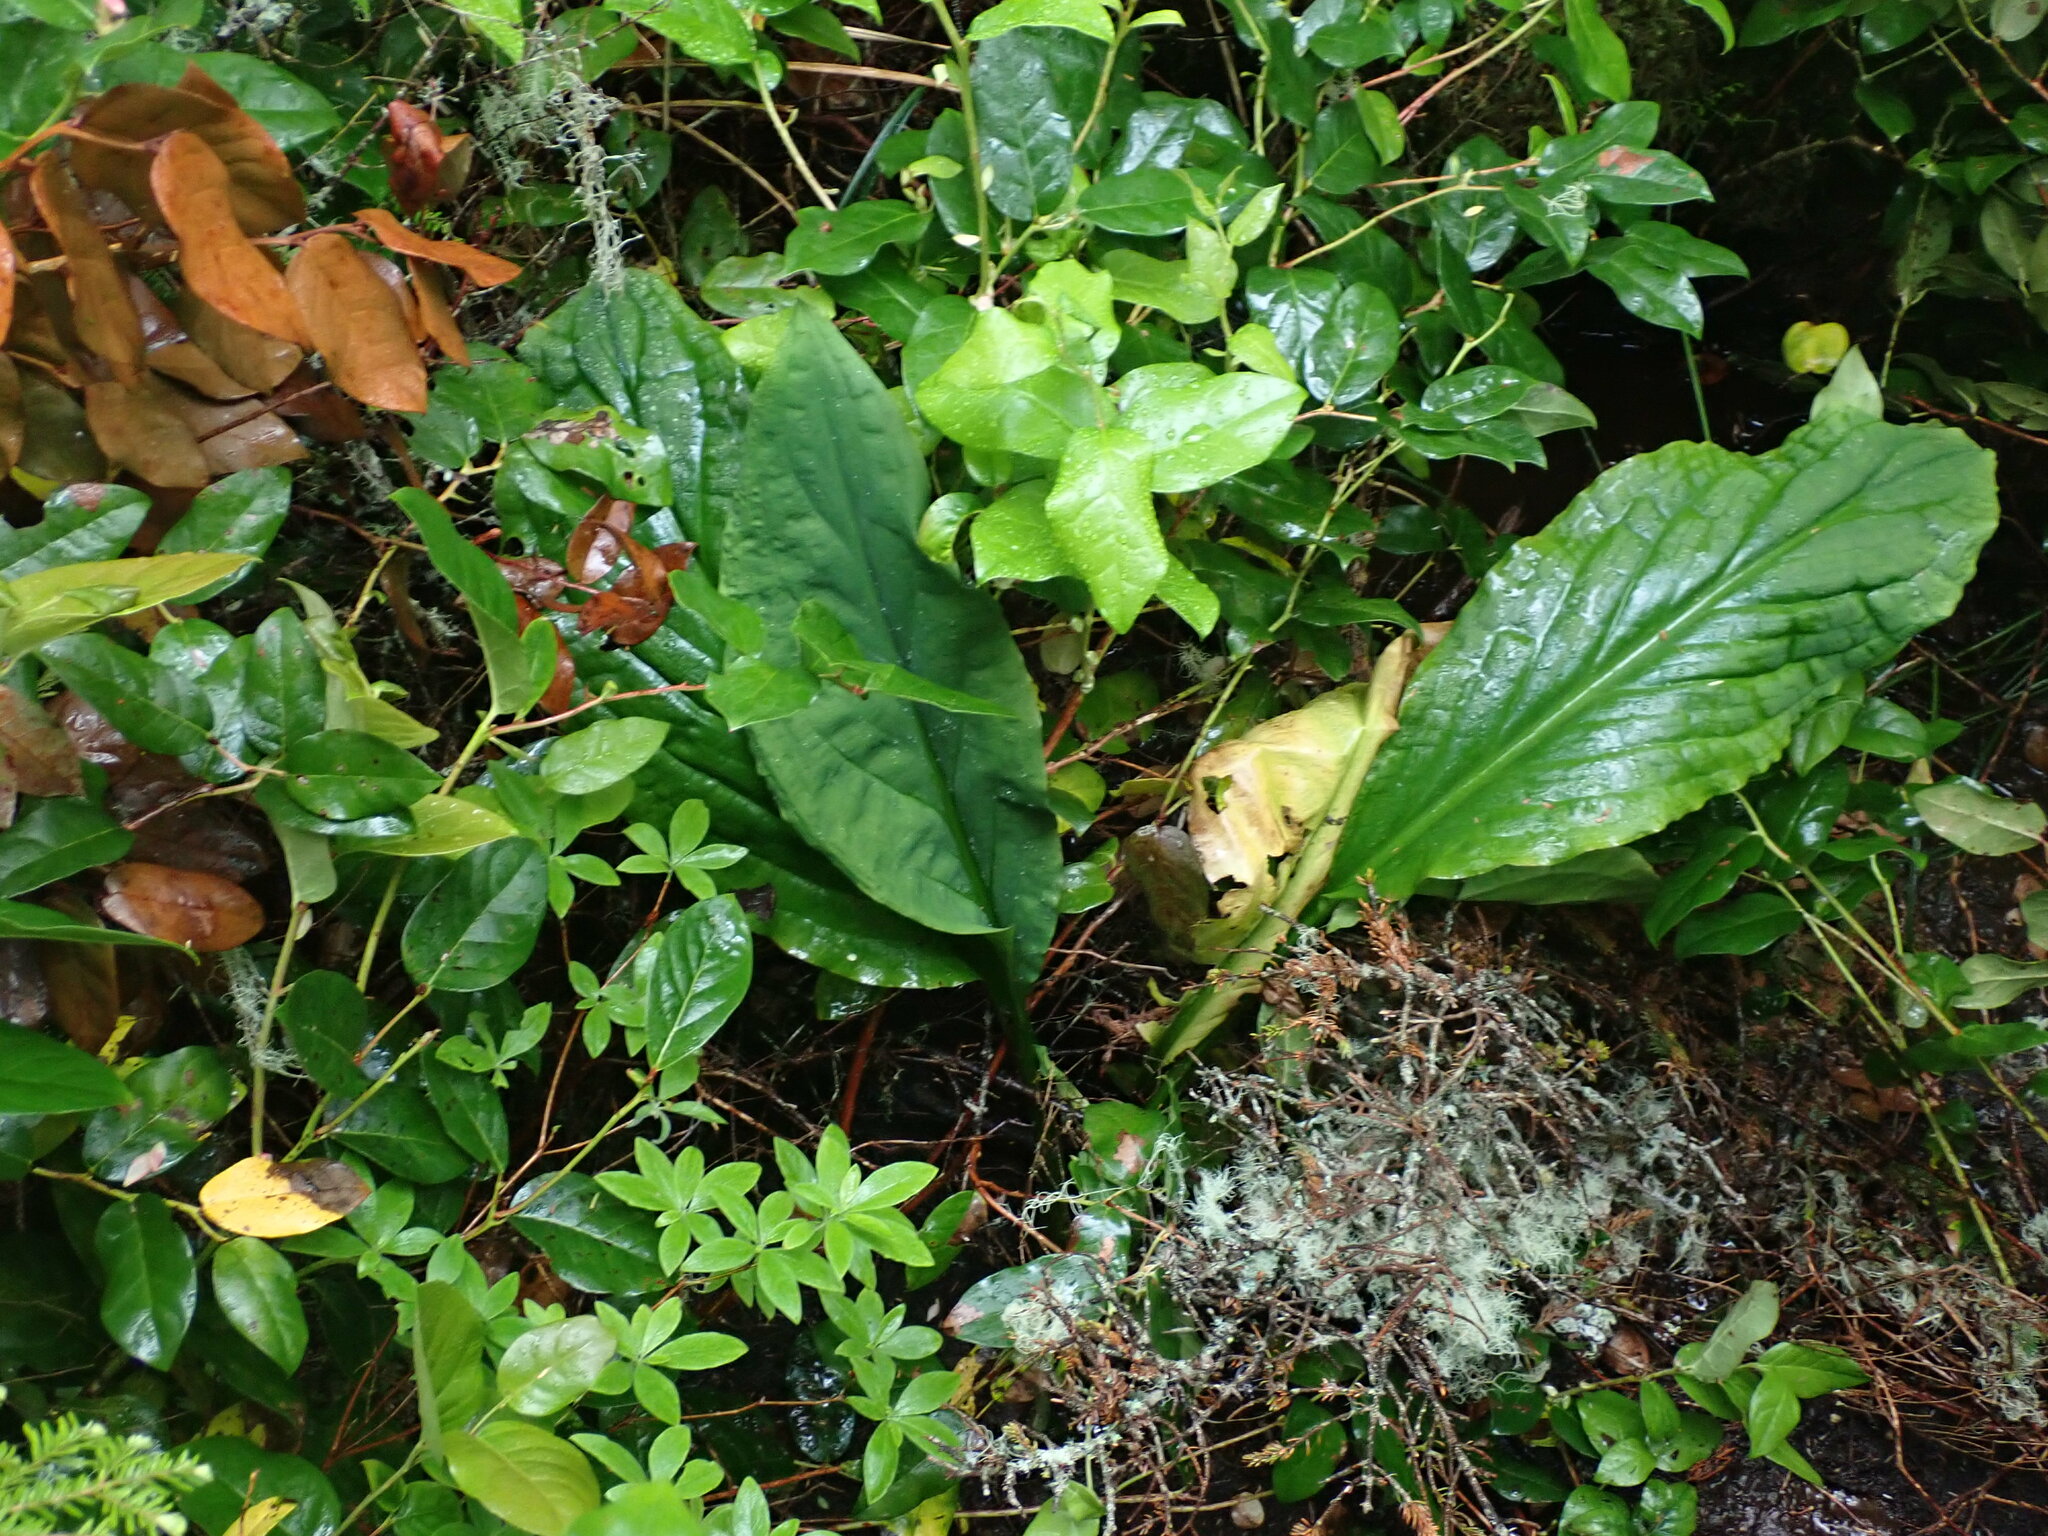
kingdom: Plantae
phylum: Tracheophyta
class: Liliopsida
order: Alismatales
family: Araceae
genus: Lysichiton
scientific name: Lysichiton americanus
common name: American skunk cabbage
